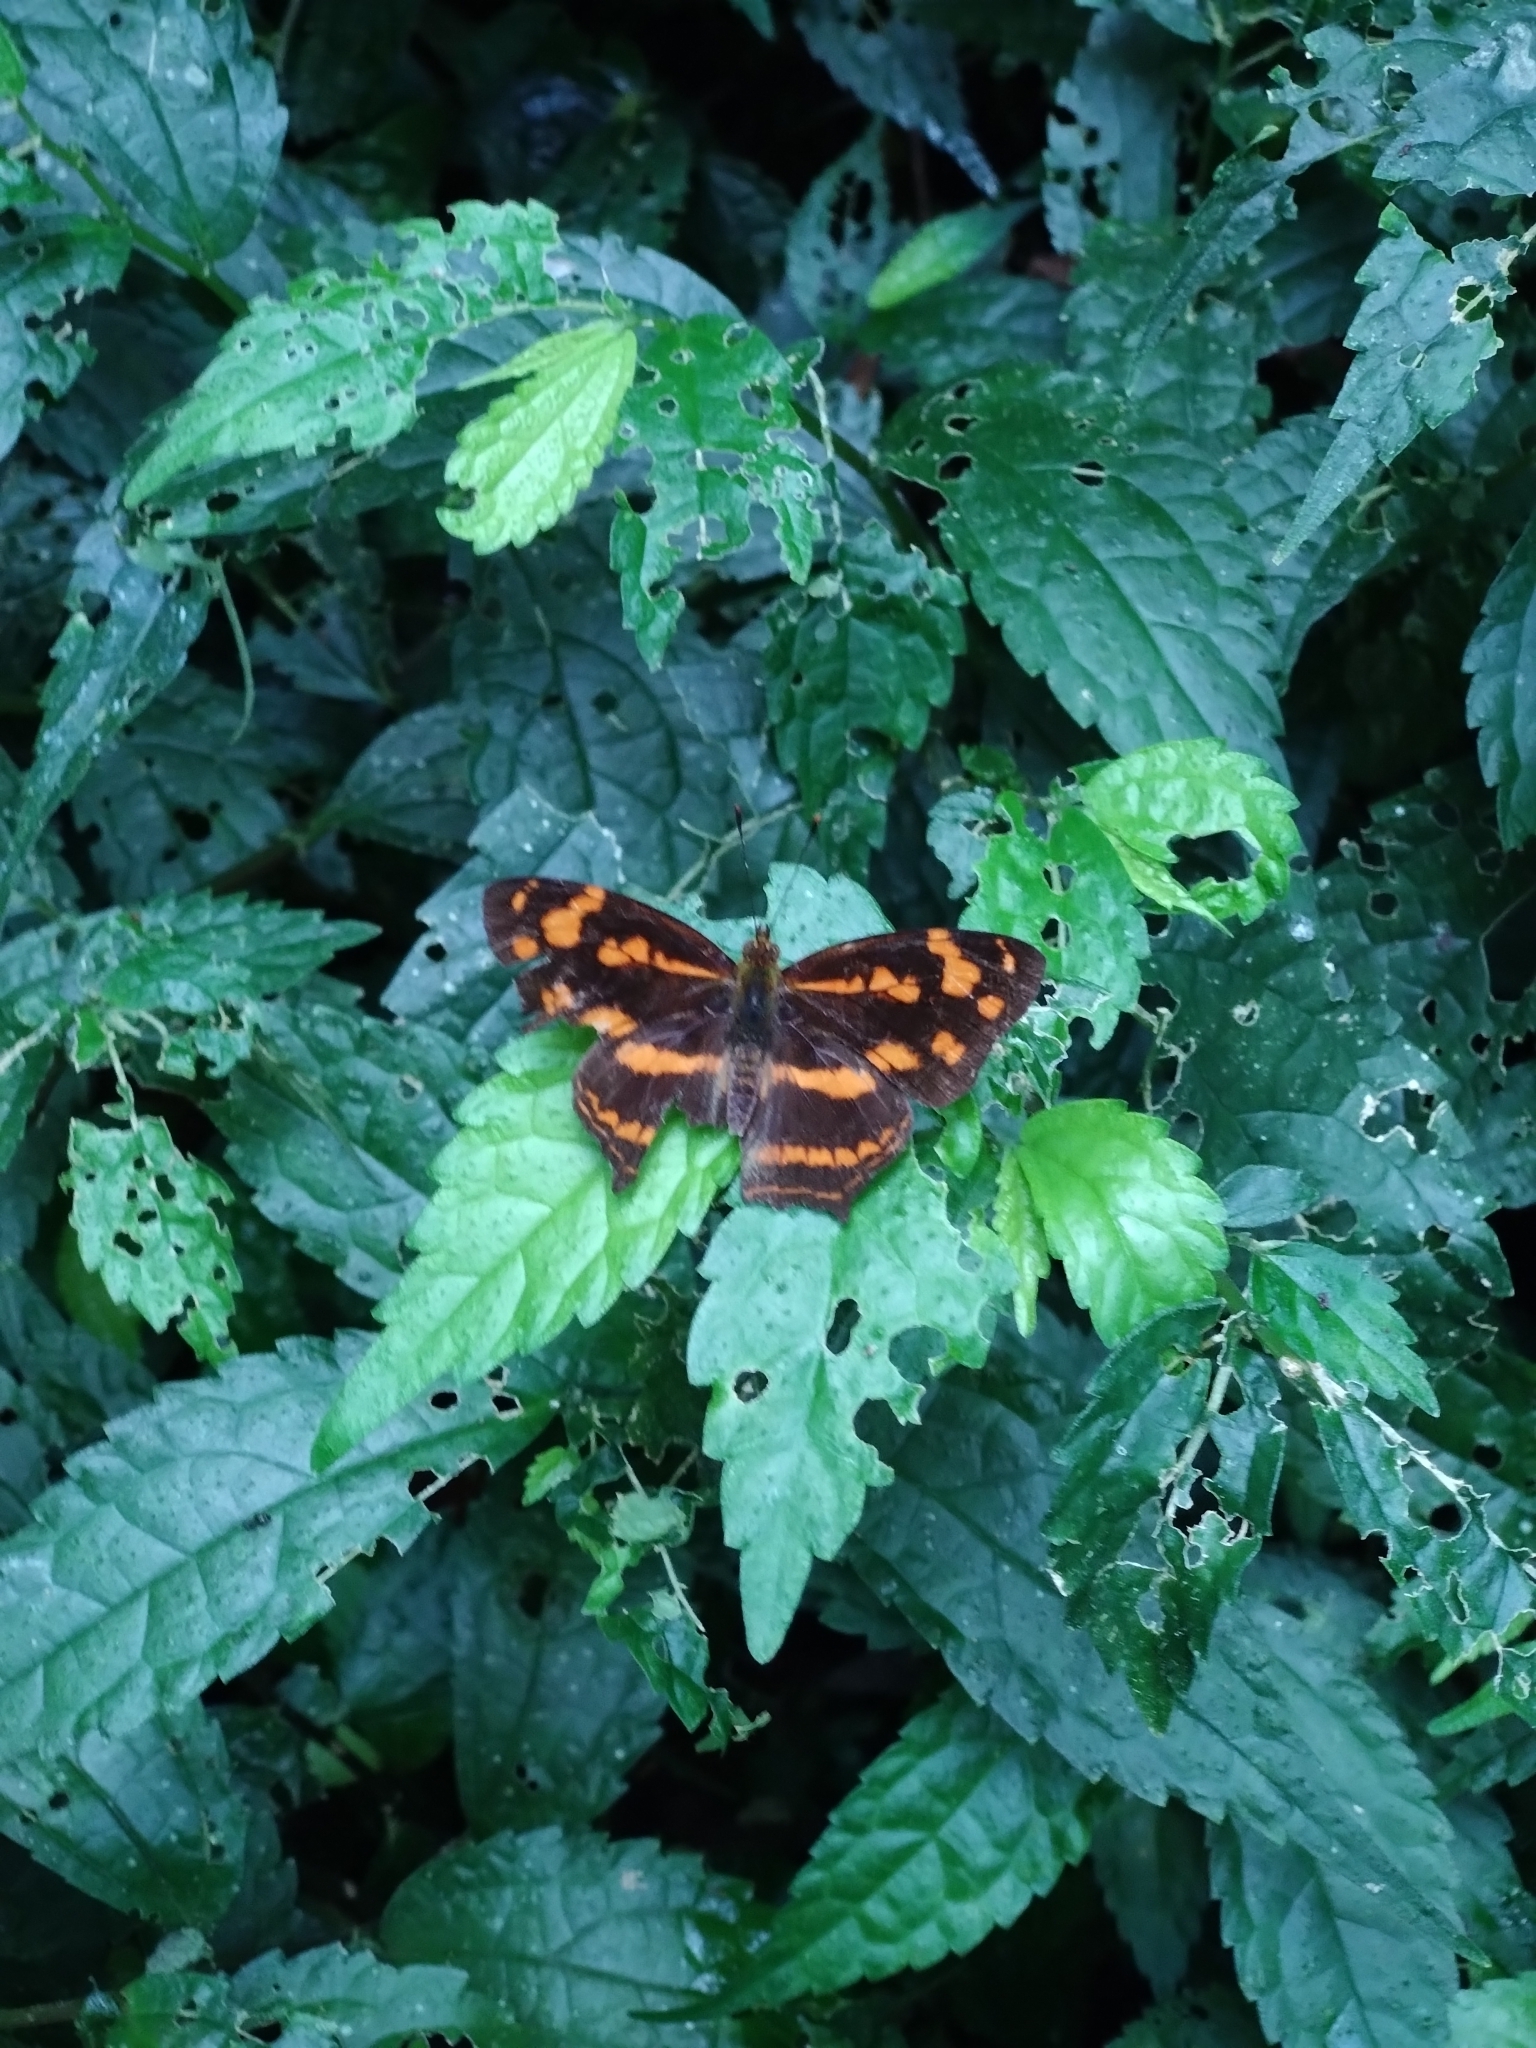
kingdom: Animalia
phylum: Arthropoda
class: Insecta
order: Lepidoptera
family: Nymphalidae
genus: Symbrenthia
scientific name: Symbrenthia hypselis
